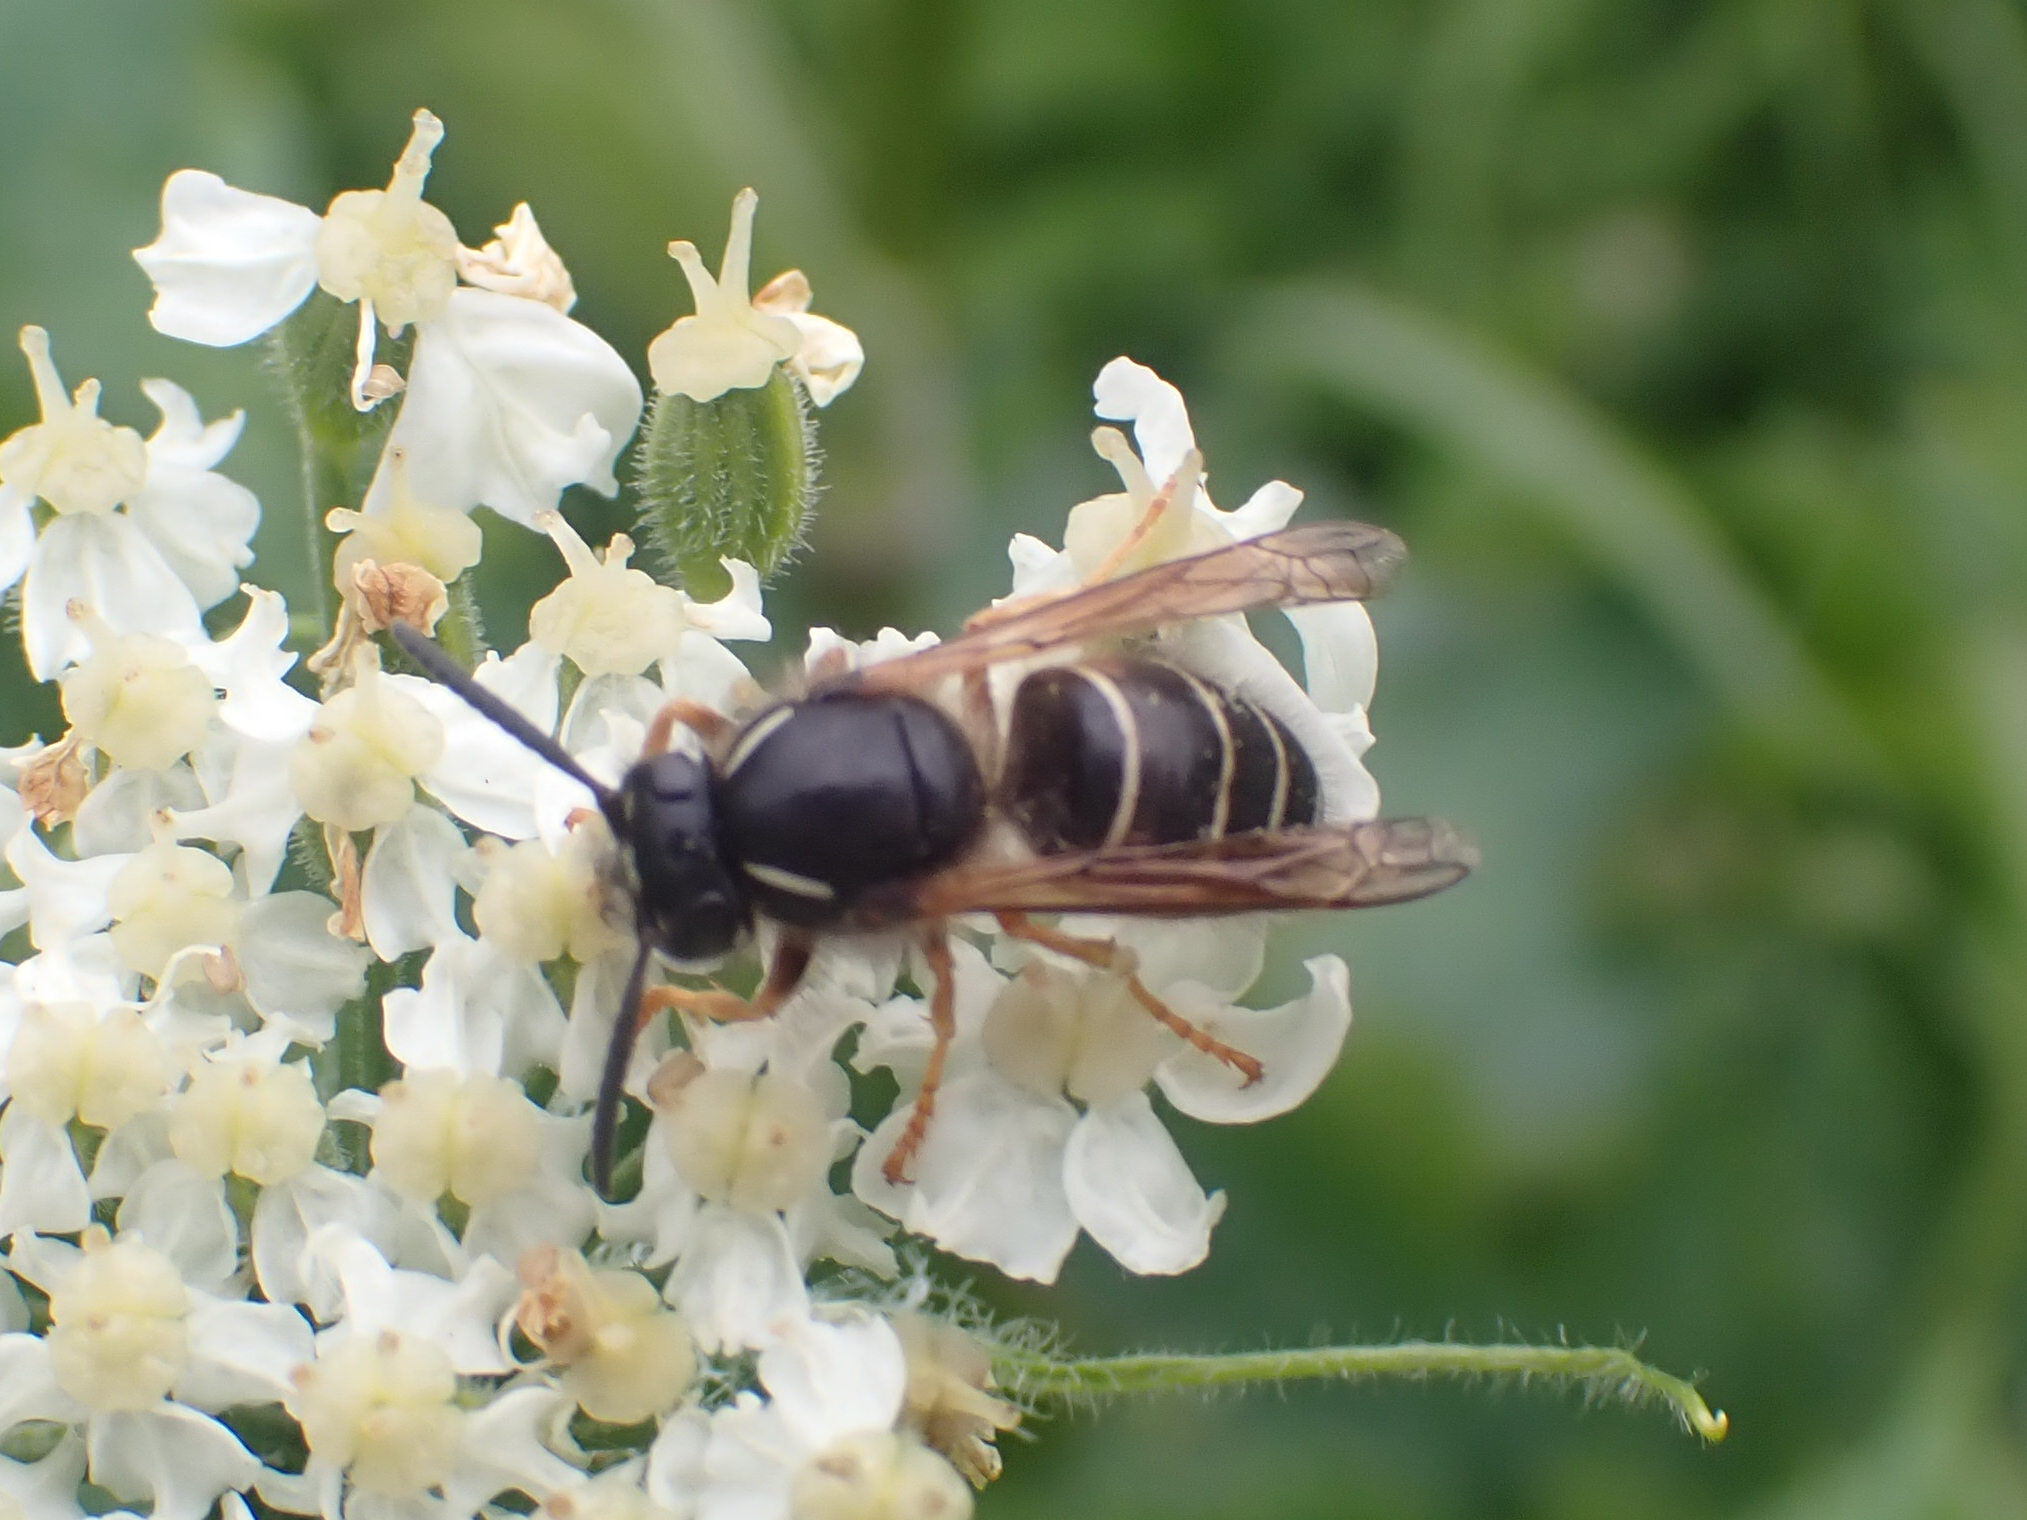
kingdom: Animalia
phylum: Arthropoda
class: Insecta
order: Hymenoptera
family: Vespidae
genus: Dolichovespula
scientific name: Dolichovespula norwegica
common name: Norwegian wasp
